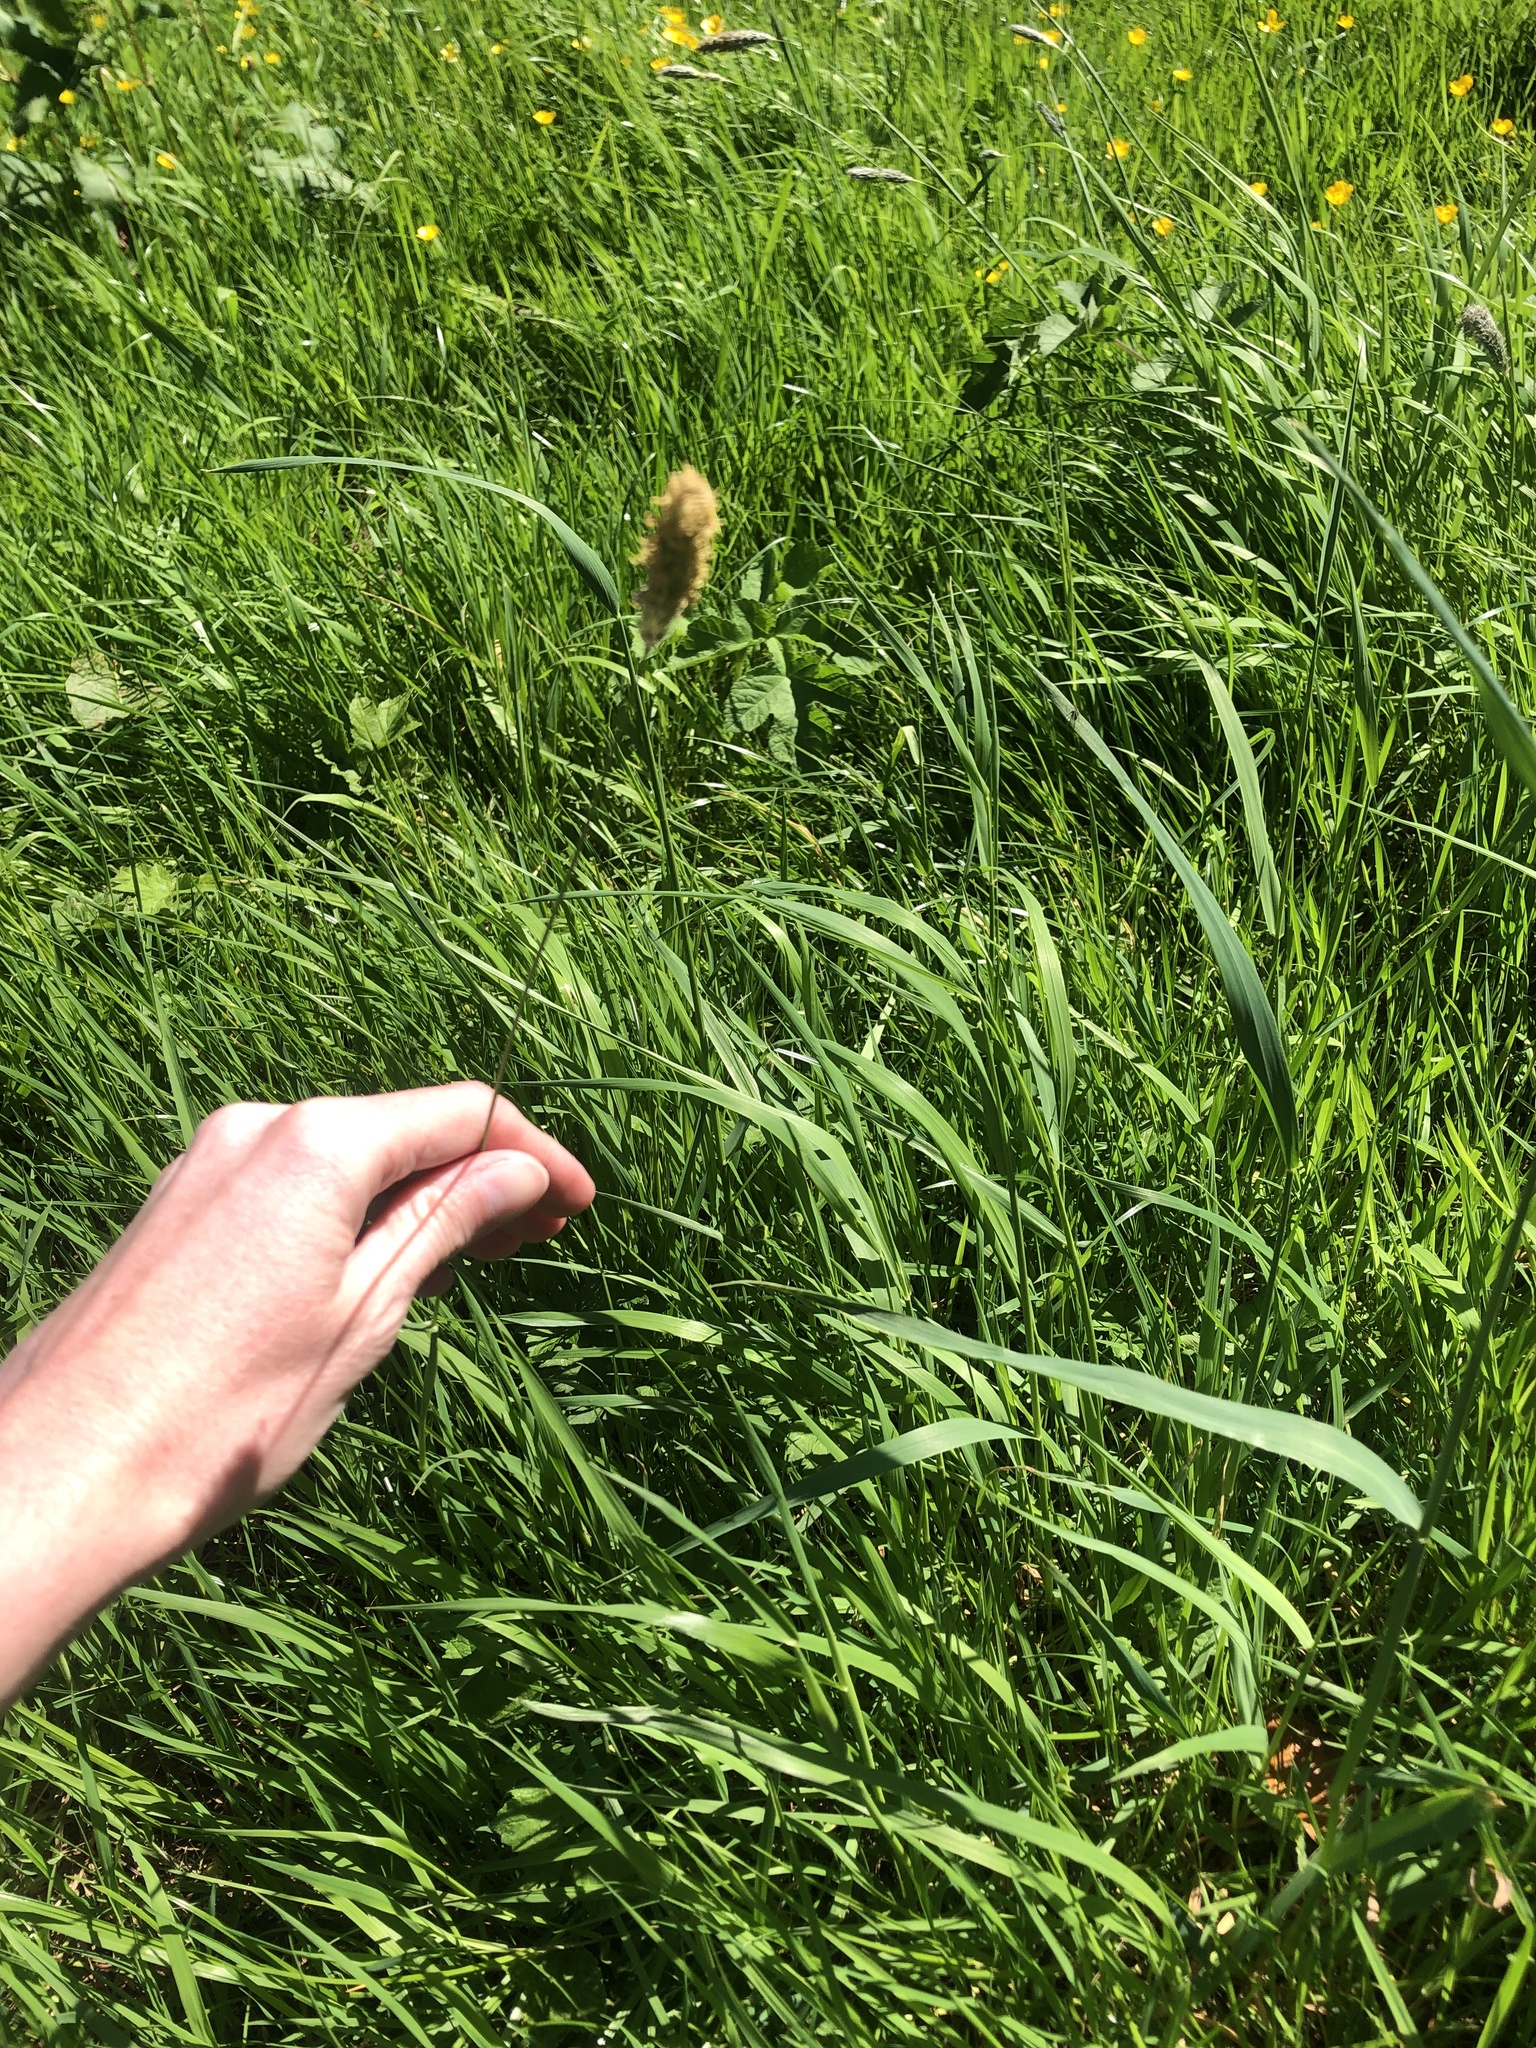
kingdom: Plantae
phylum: Tracheophyta
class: Liliopsida
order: Poales
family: Poaceae
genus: Alopecurus
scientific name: Alopecurus pratensis
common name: Meadow foxtail
